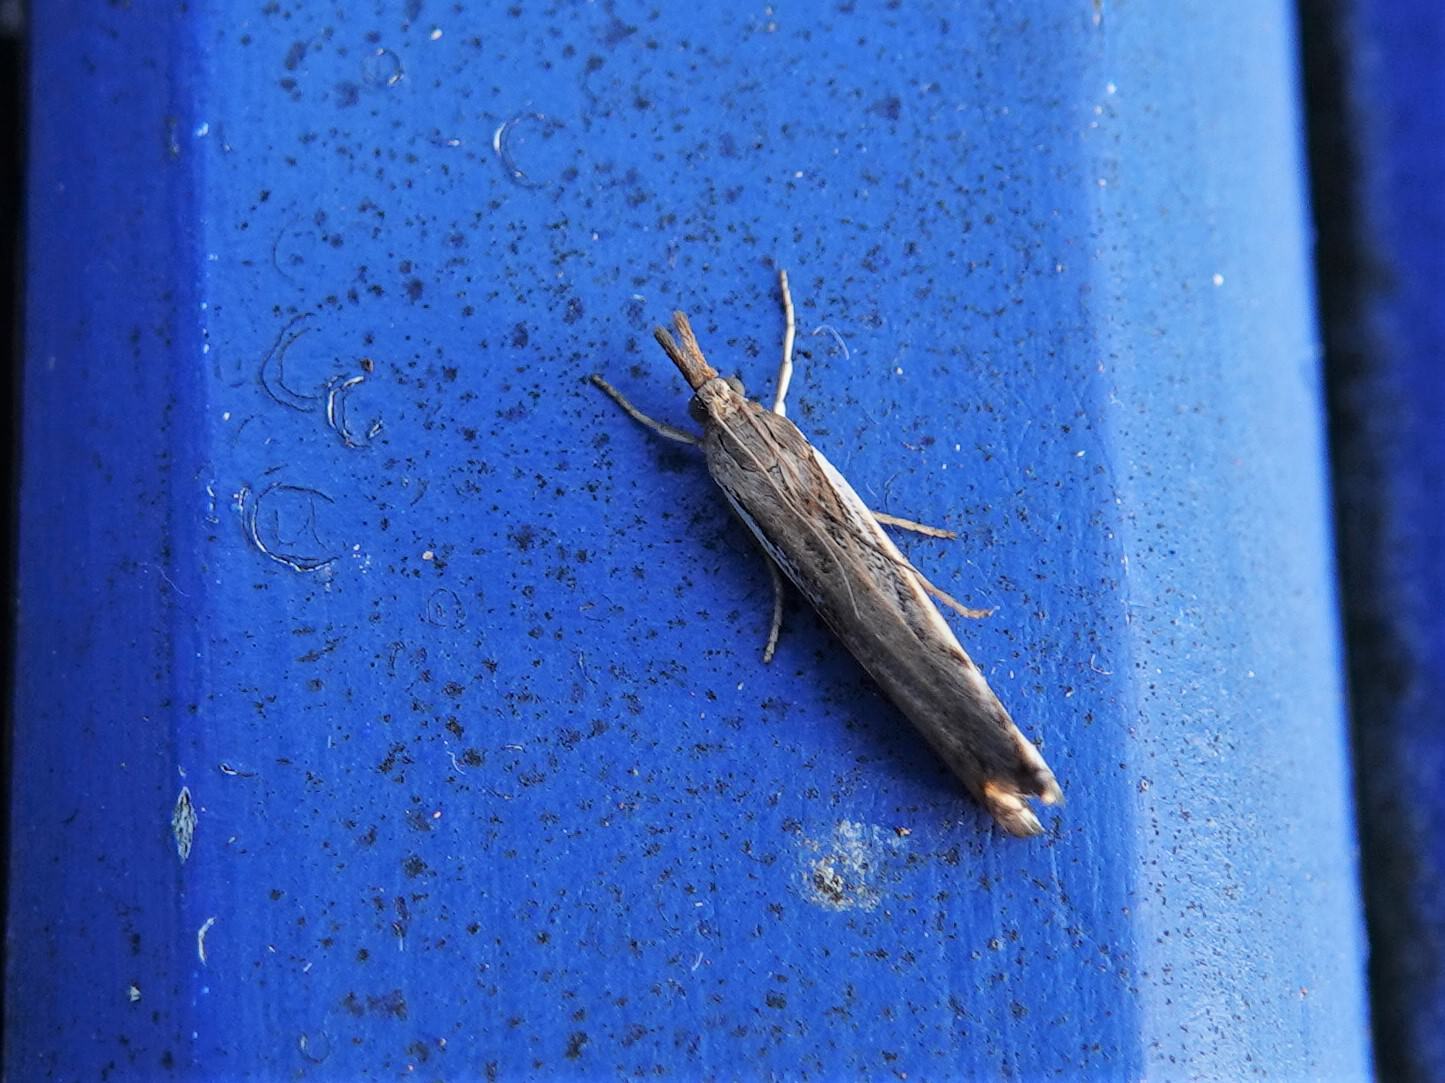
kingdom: Animalia
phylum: Arthropoda
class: Insecta
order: Lepidoptera
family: Crambidae
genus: Orocrambus
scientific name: Orocrambus flexuosellus
